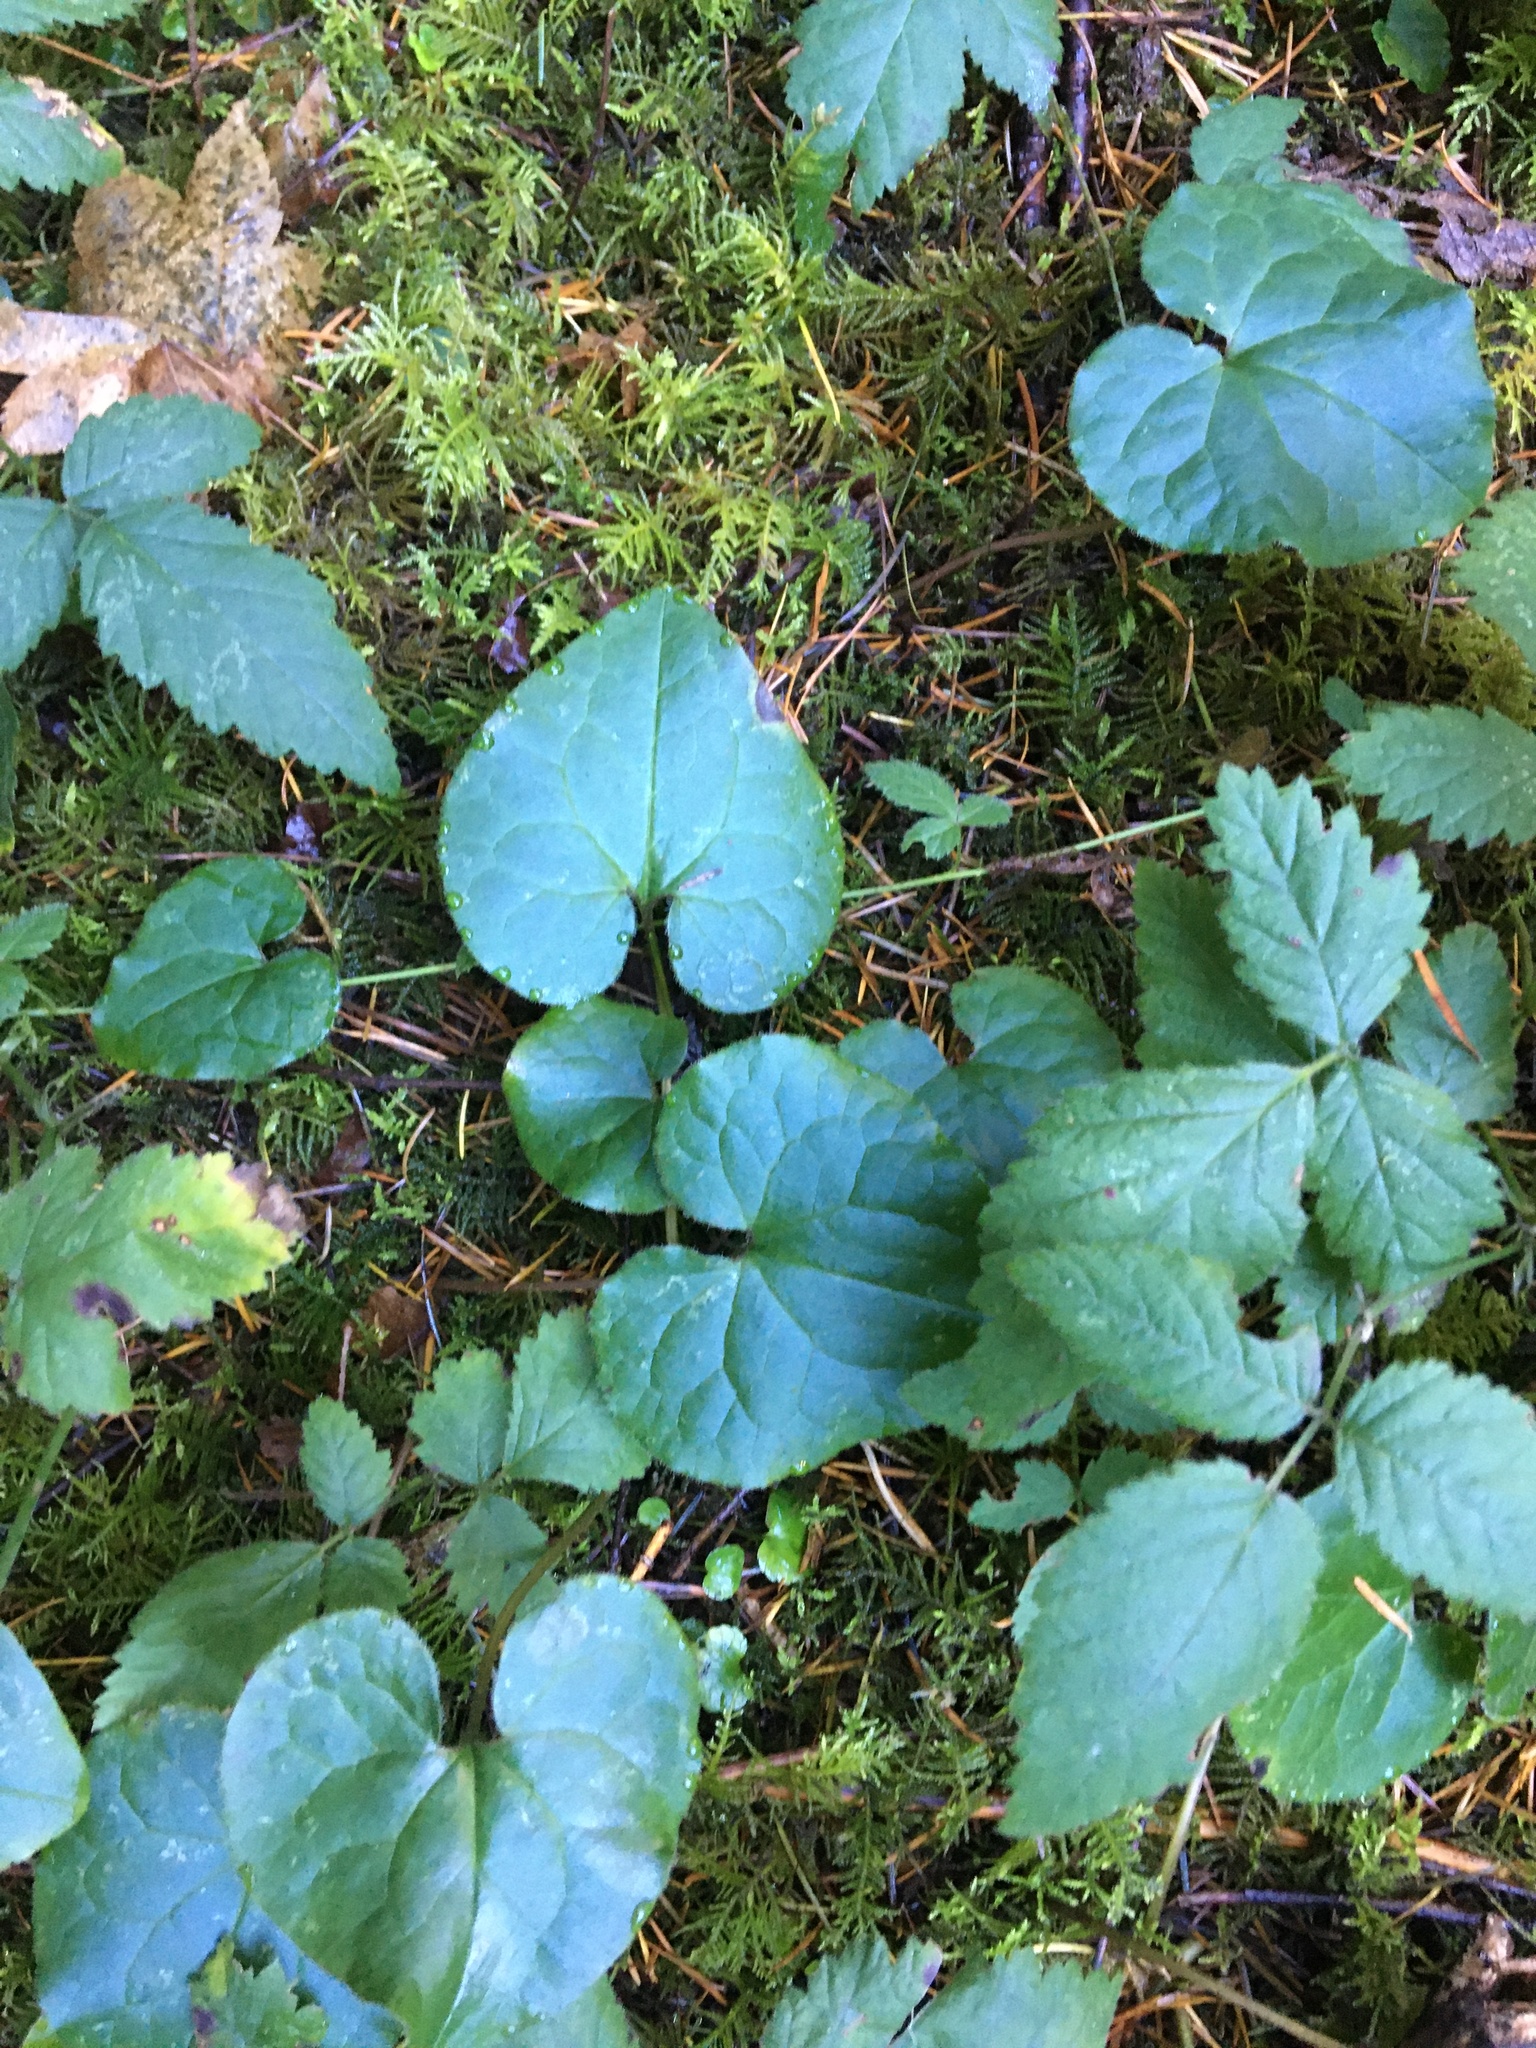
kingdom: Plantae
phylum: Tracheophyta
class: Magnoliopsida
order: Piperales
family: Aristolochiaceae
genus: Asarum
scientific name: Asarum caudatum
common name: Wild ginger
